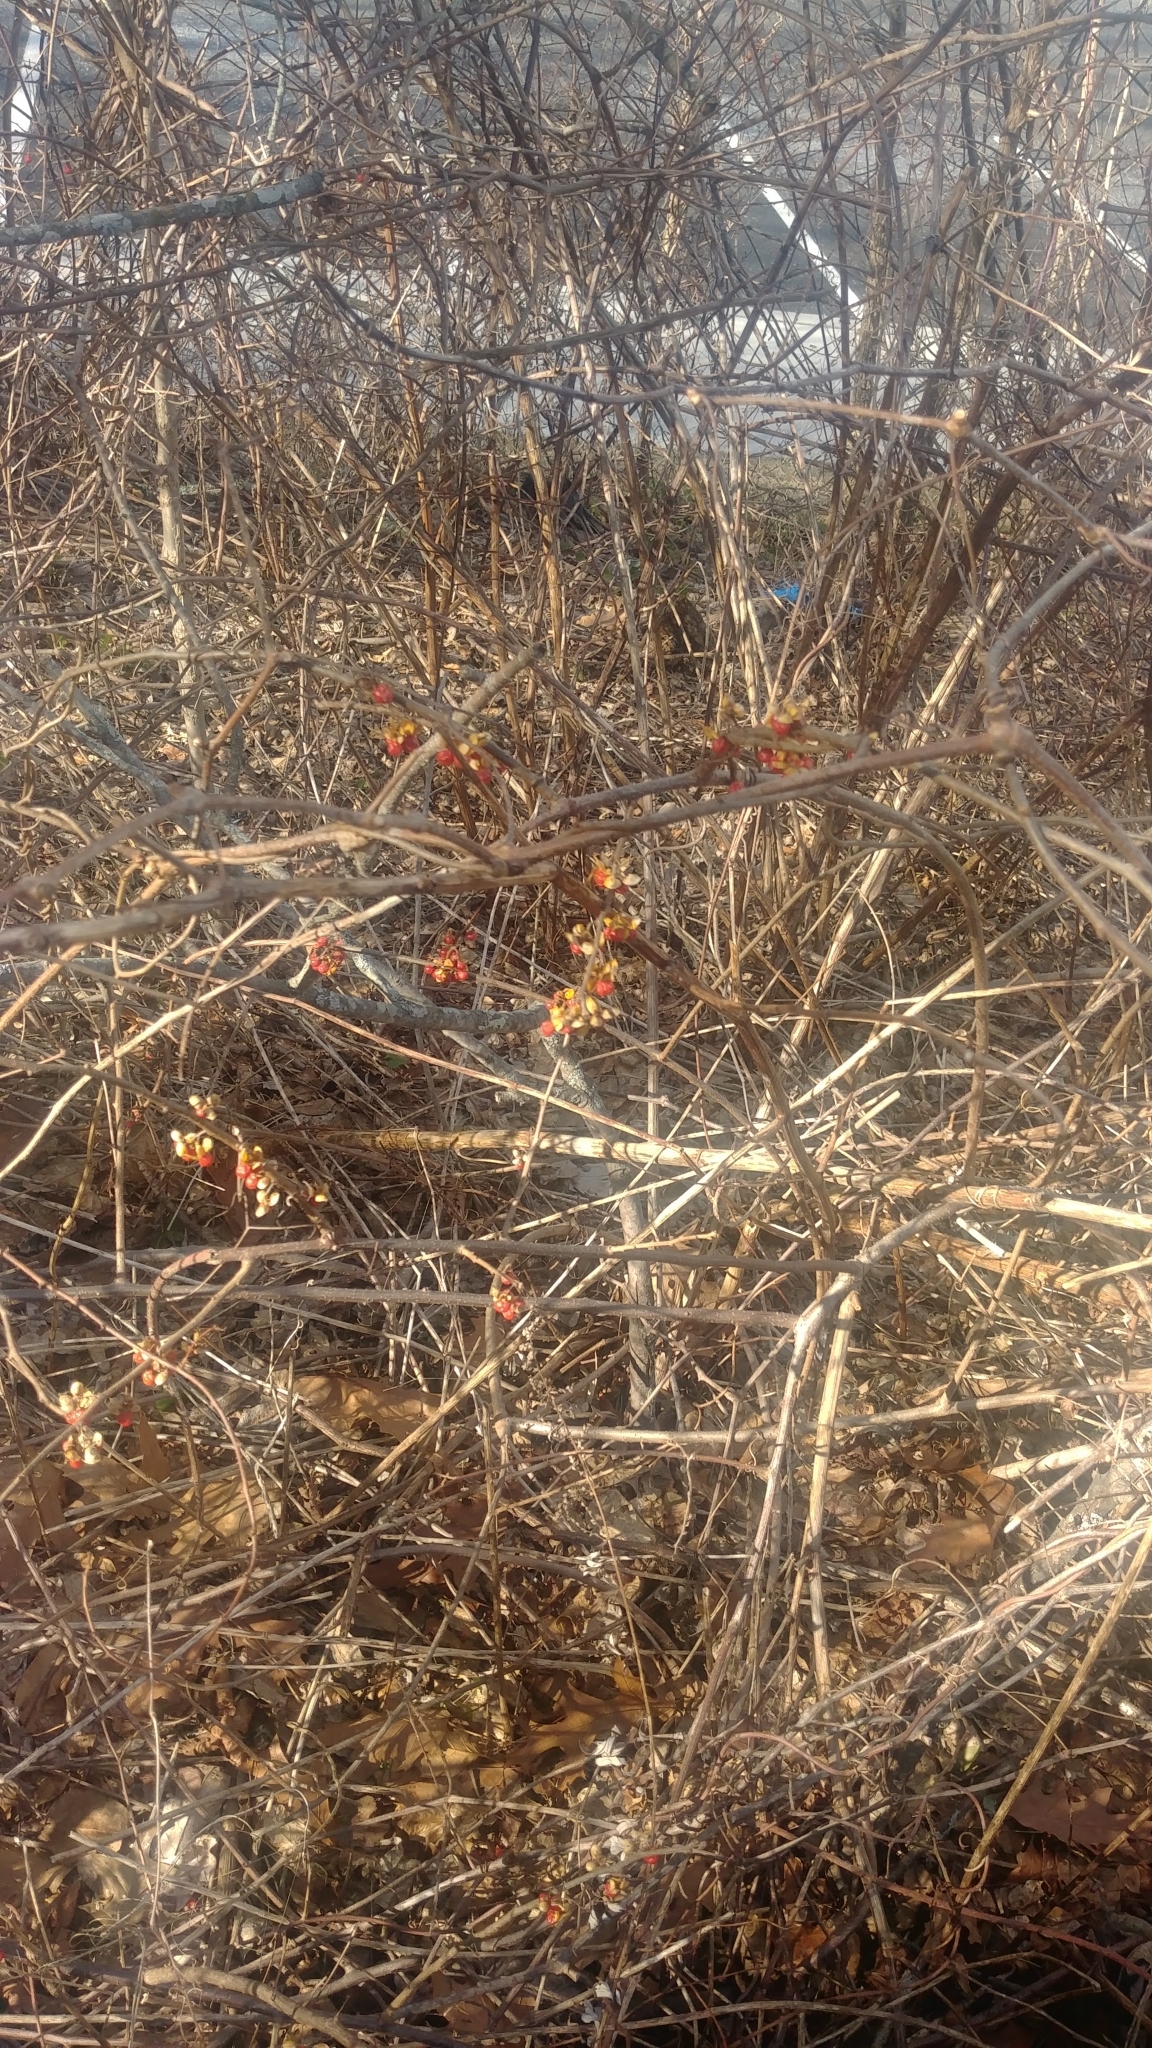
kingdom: Plantae
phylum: Tracheophyta
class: Magnoliopsida
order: Celastrales
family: Celastraceae
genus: Celastrus
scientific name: Celastrus orbiculatus
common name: Oriental bittersweet
